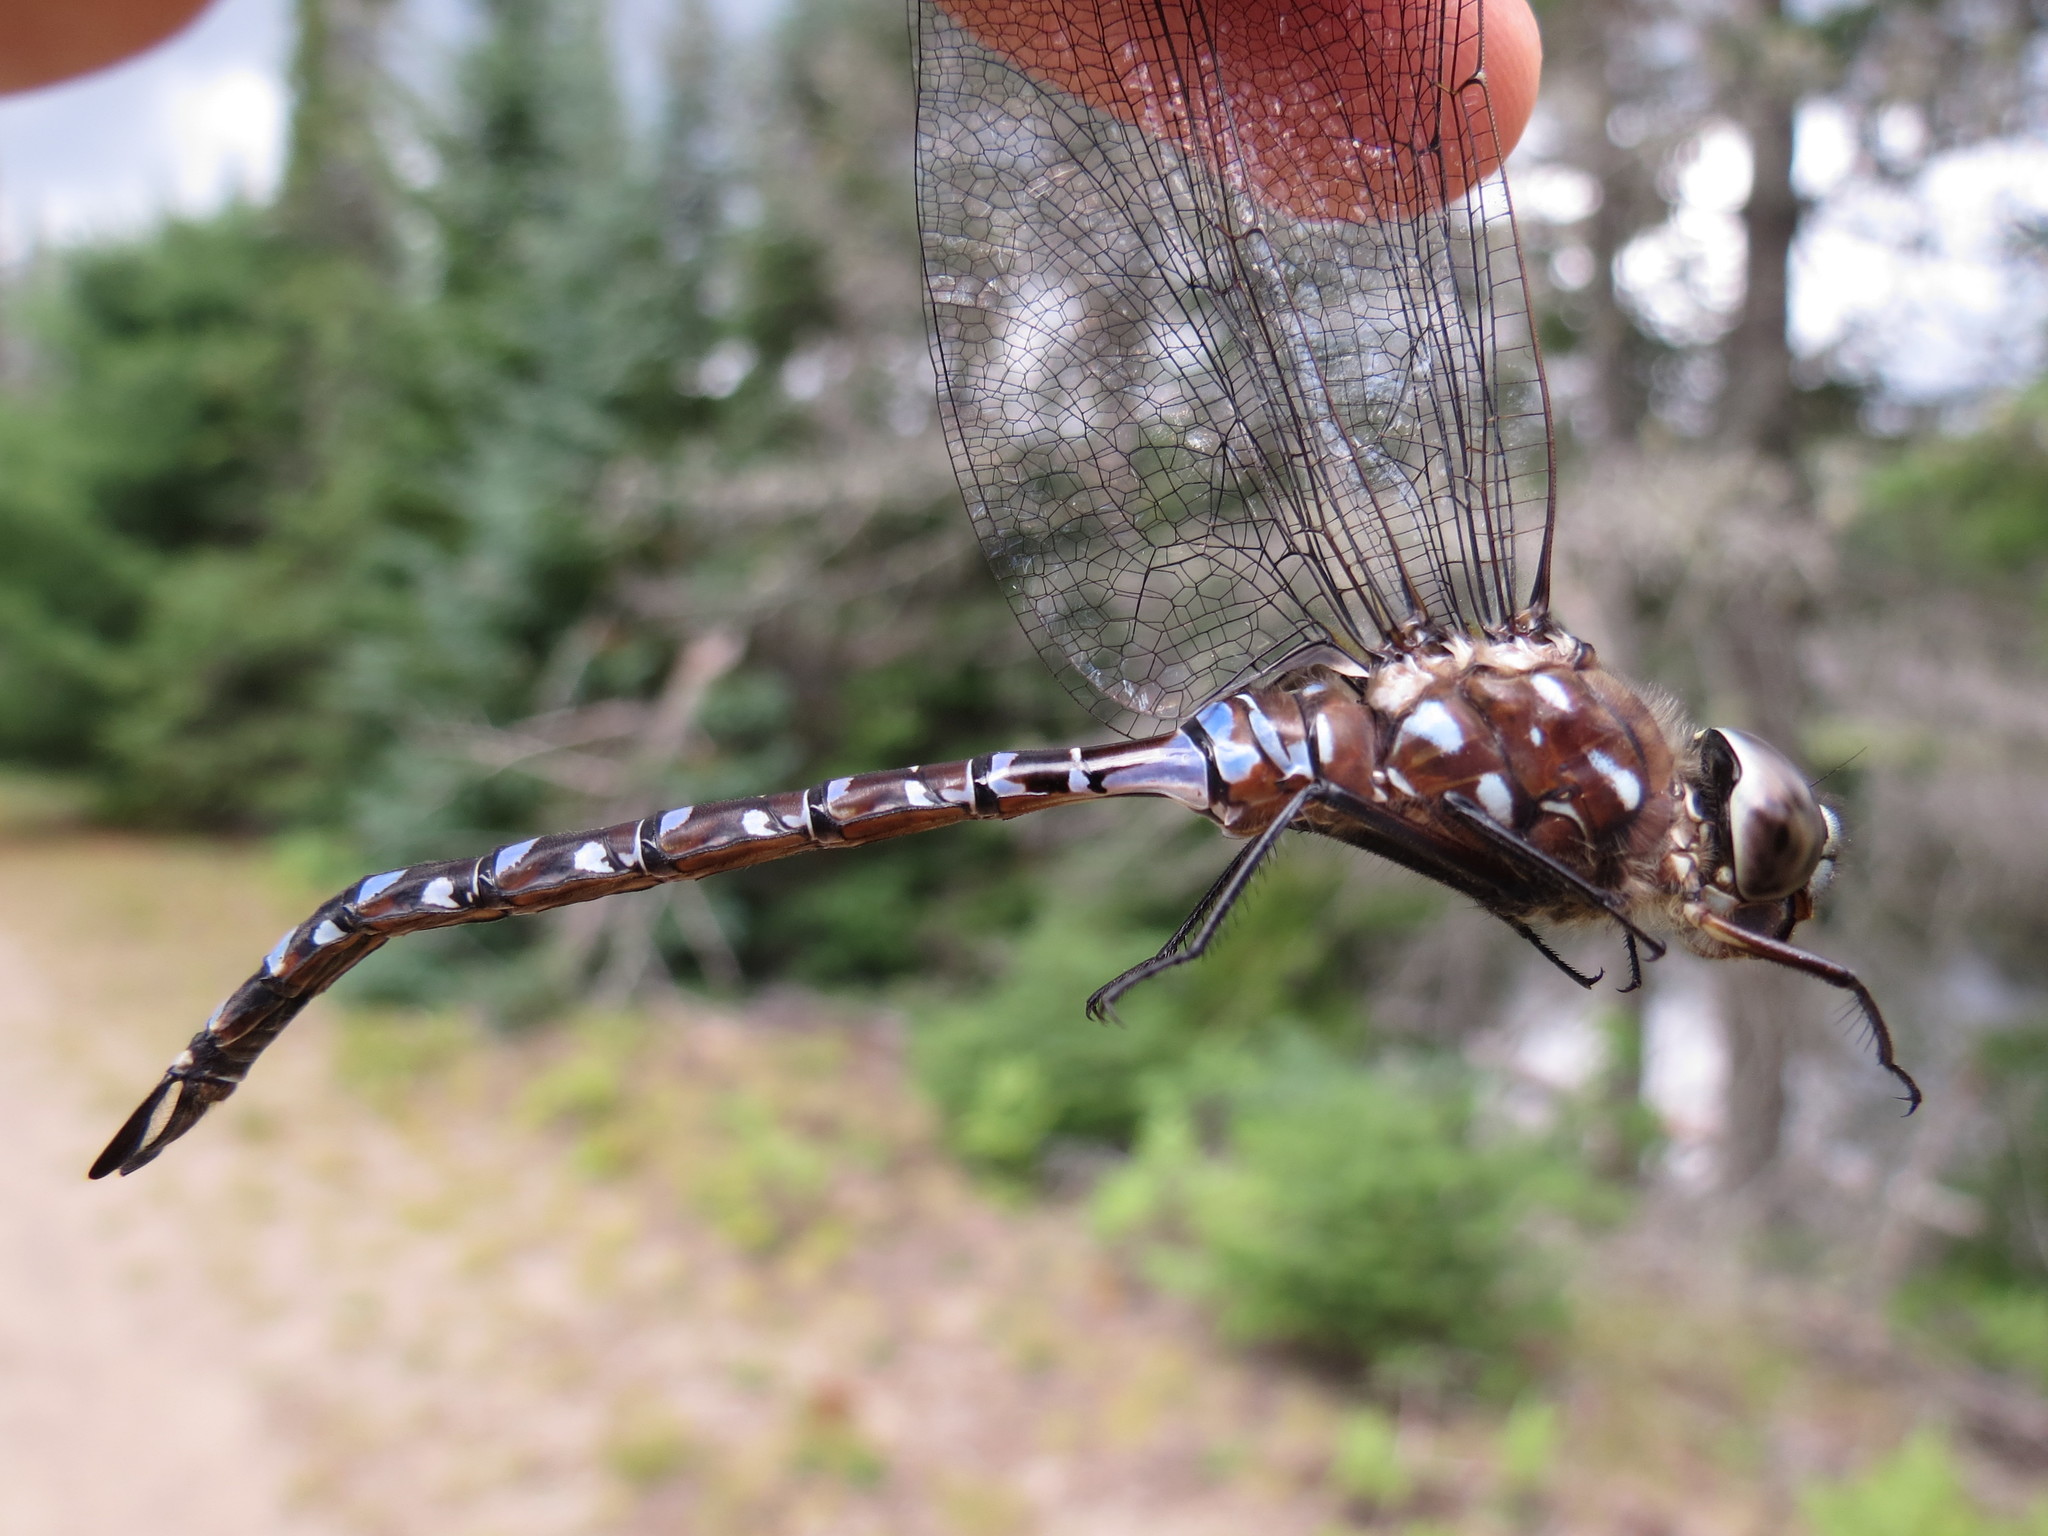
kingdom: Animalia
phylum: Arthropoda
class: Insecta
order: Odonata
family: Aeshnidae
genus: Aeshna
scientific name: Aeshna interrupta
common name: Variable darner
